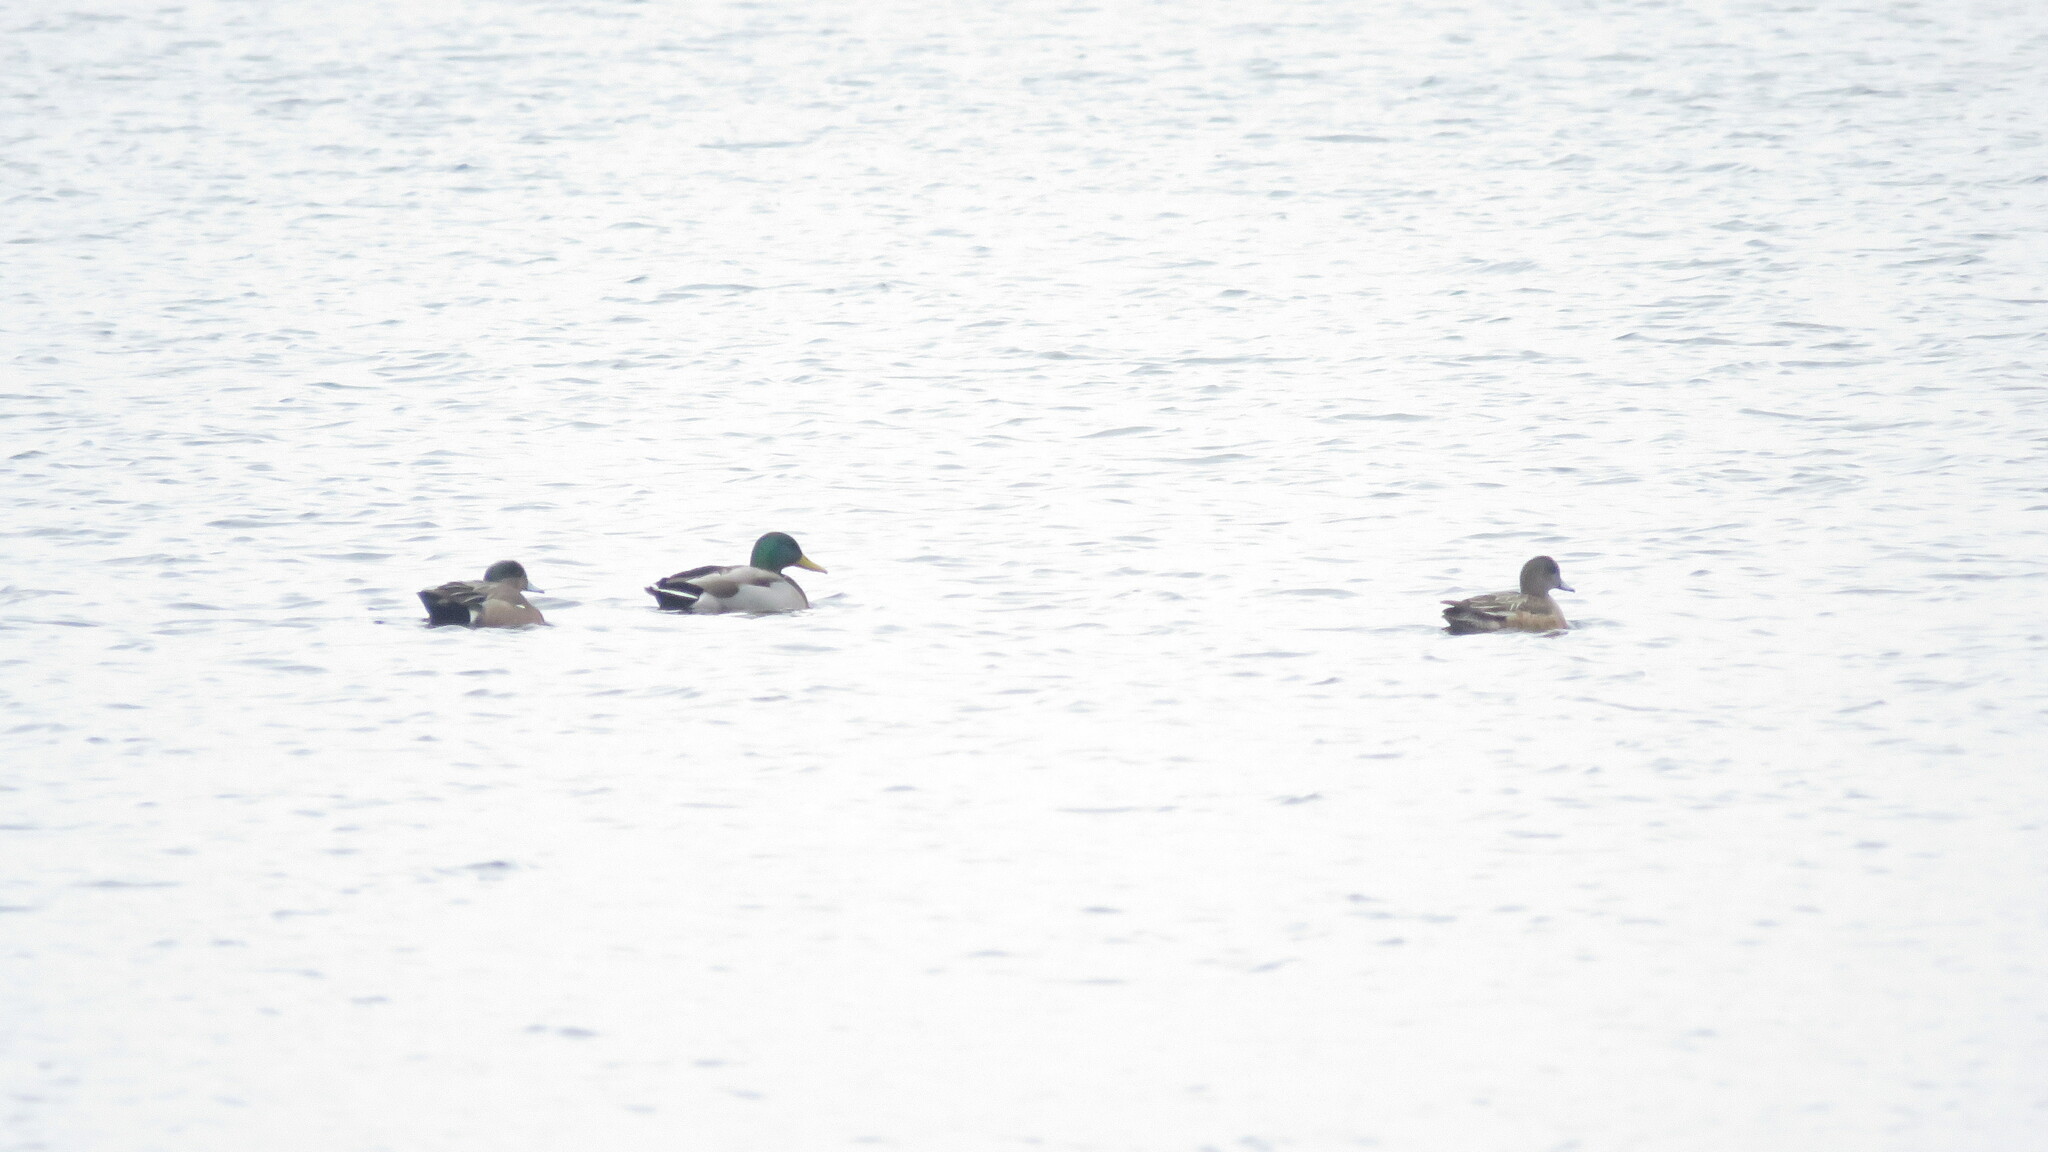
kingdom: Animalia
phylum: Chordata
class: Aves
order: Anseriformes
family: Anatidae
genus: Mareca
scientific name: Mareca americana
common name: American wigeon
